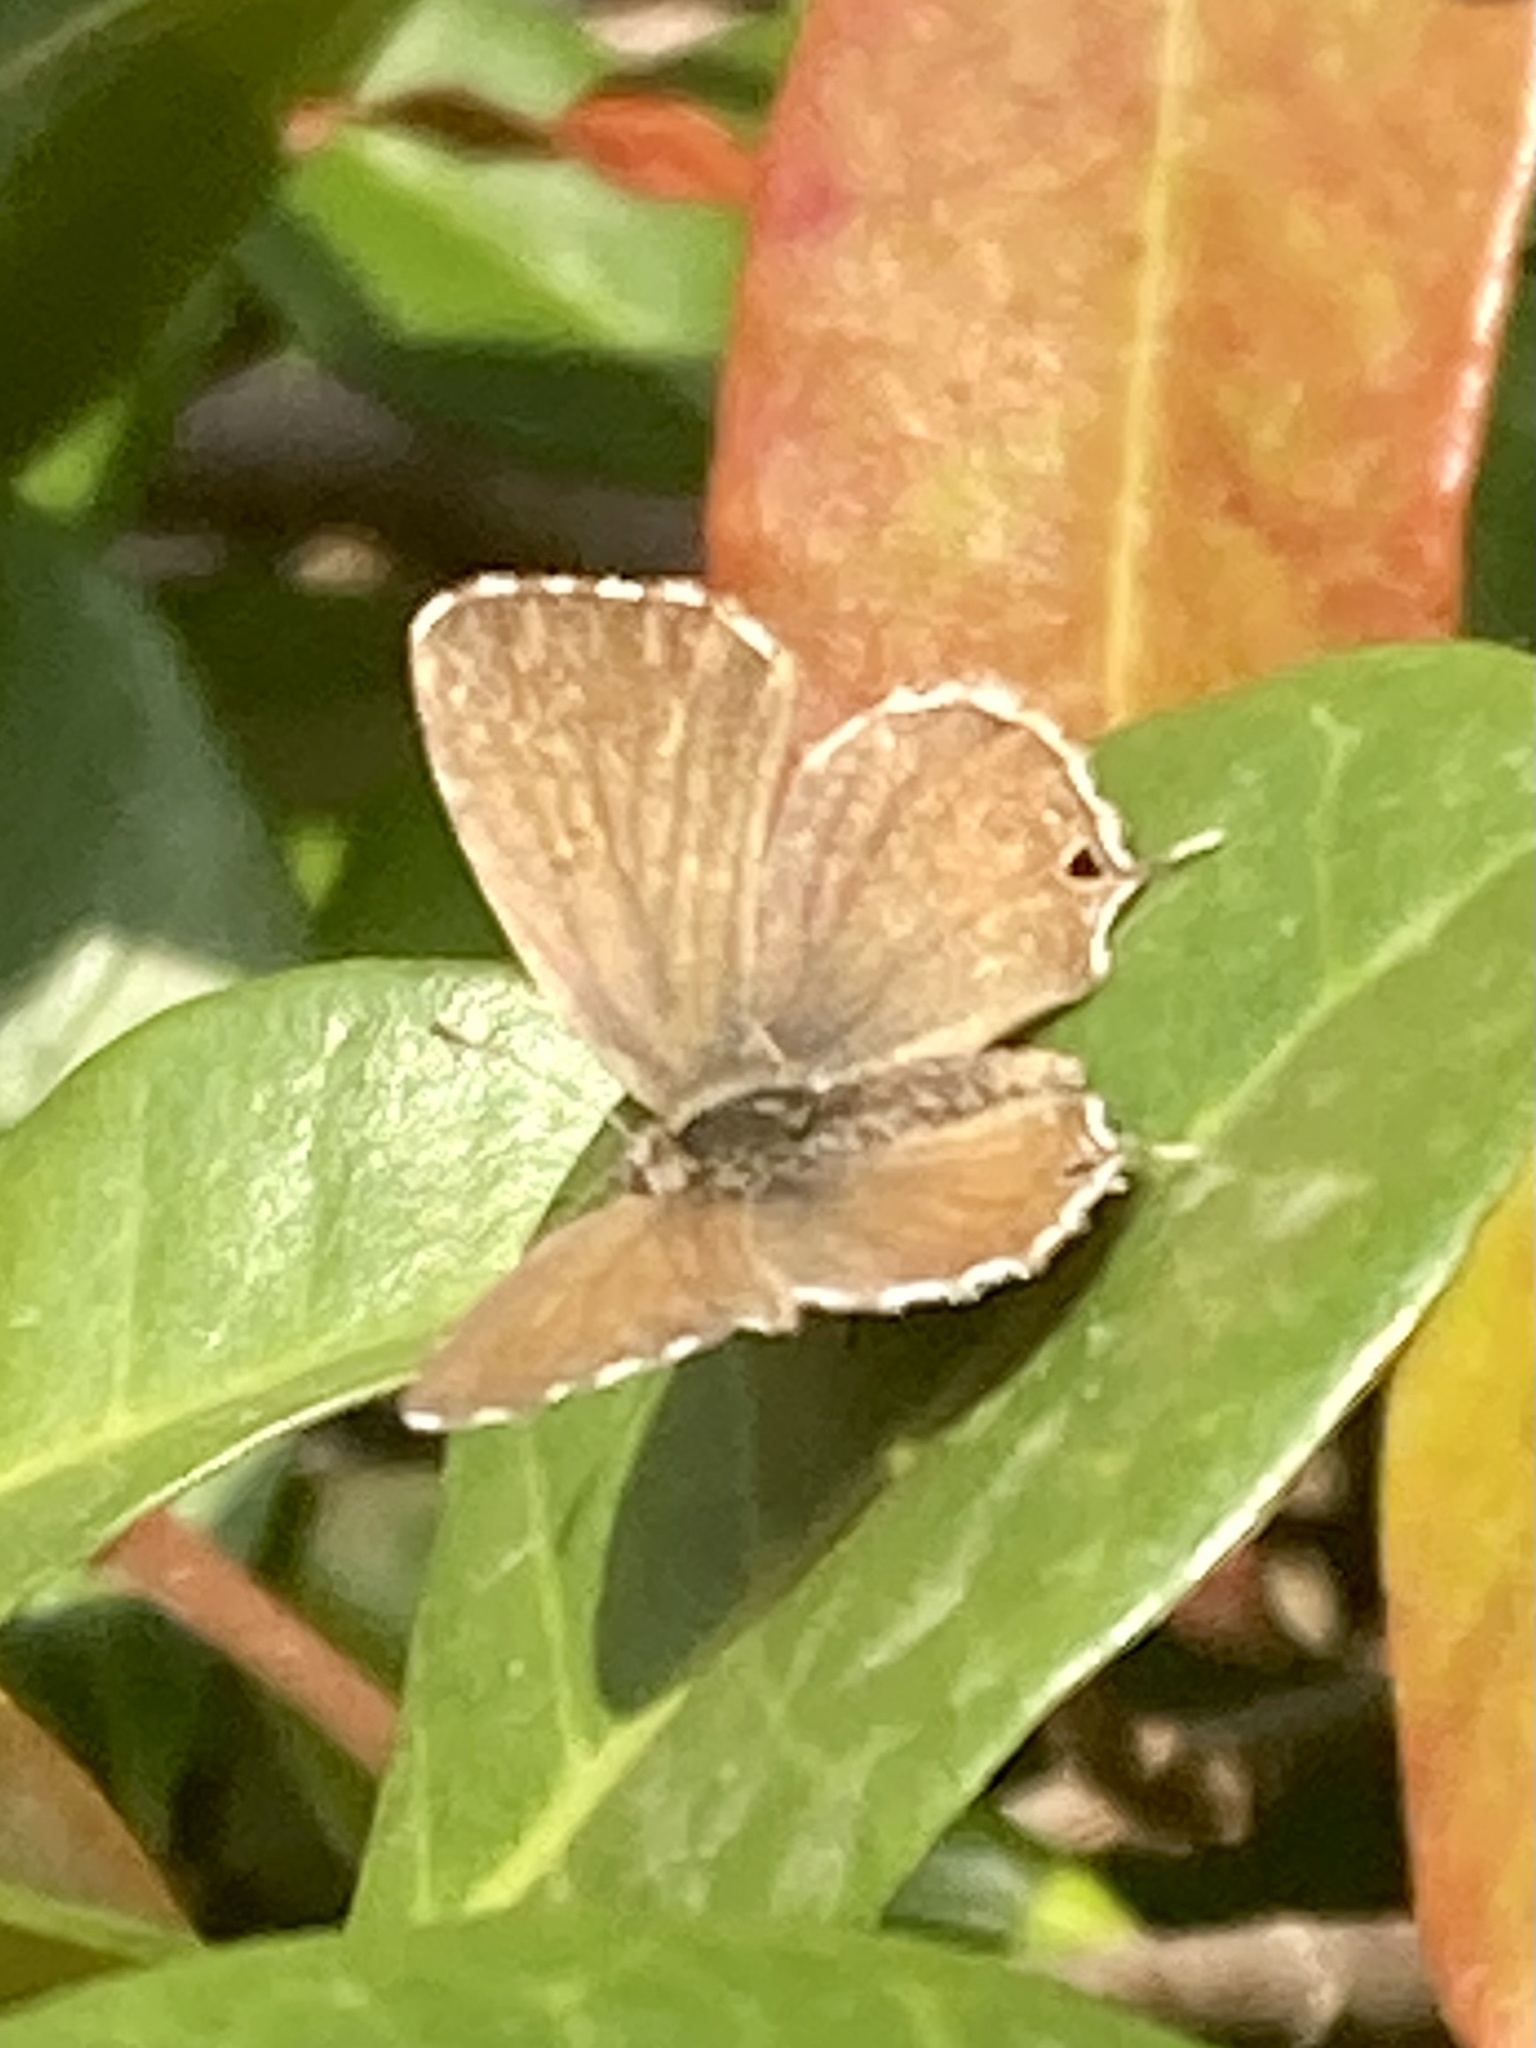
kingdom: Animalia
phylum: Arthropoda
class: Insecta
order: Lepidoptera
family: Lycaenidae
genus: Cacyreus
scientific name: Cacyreus marshalli
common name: Geranium bronze
